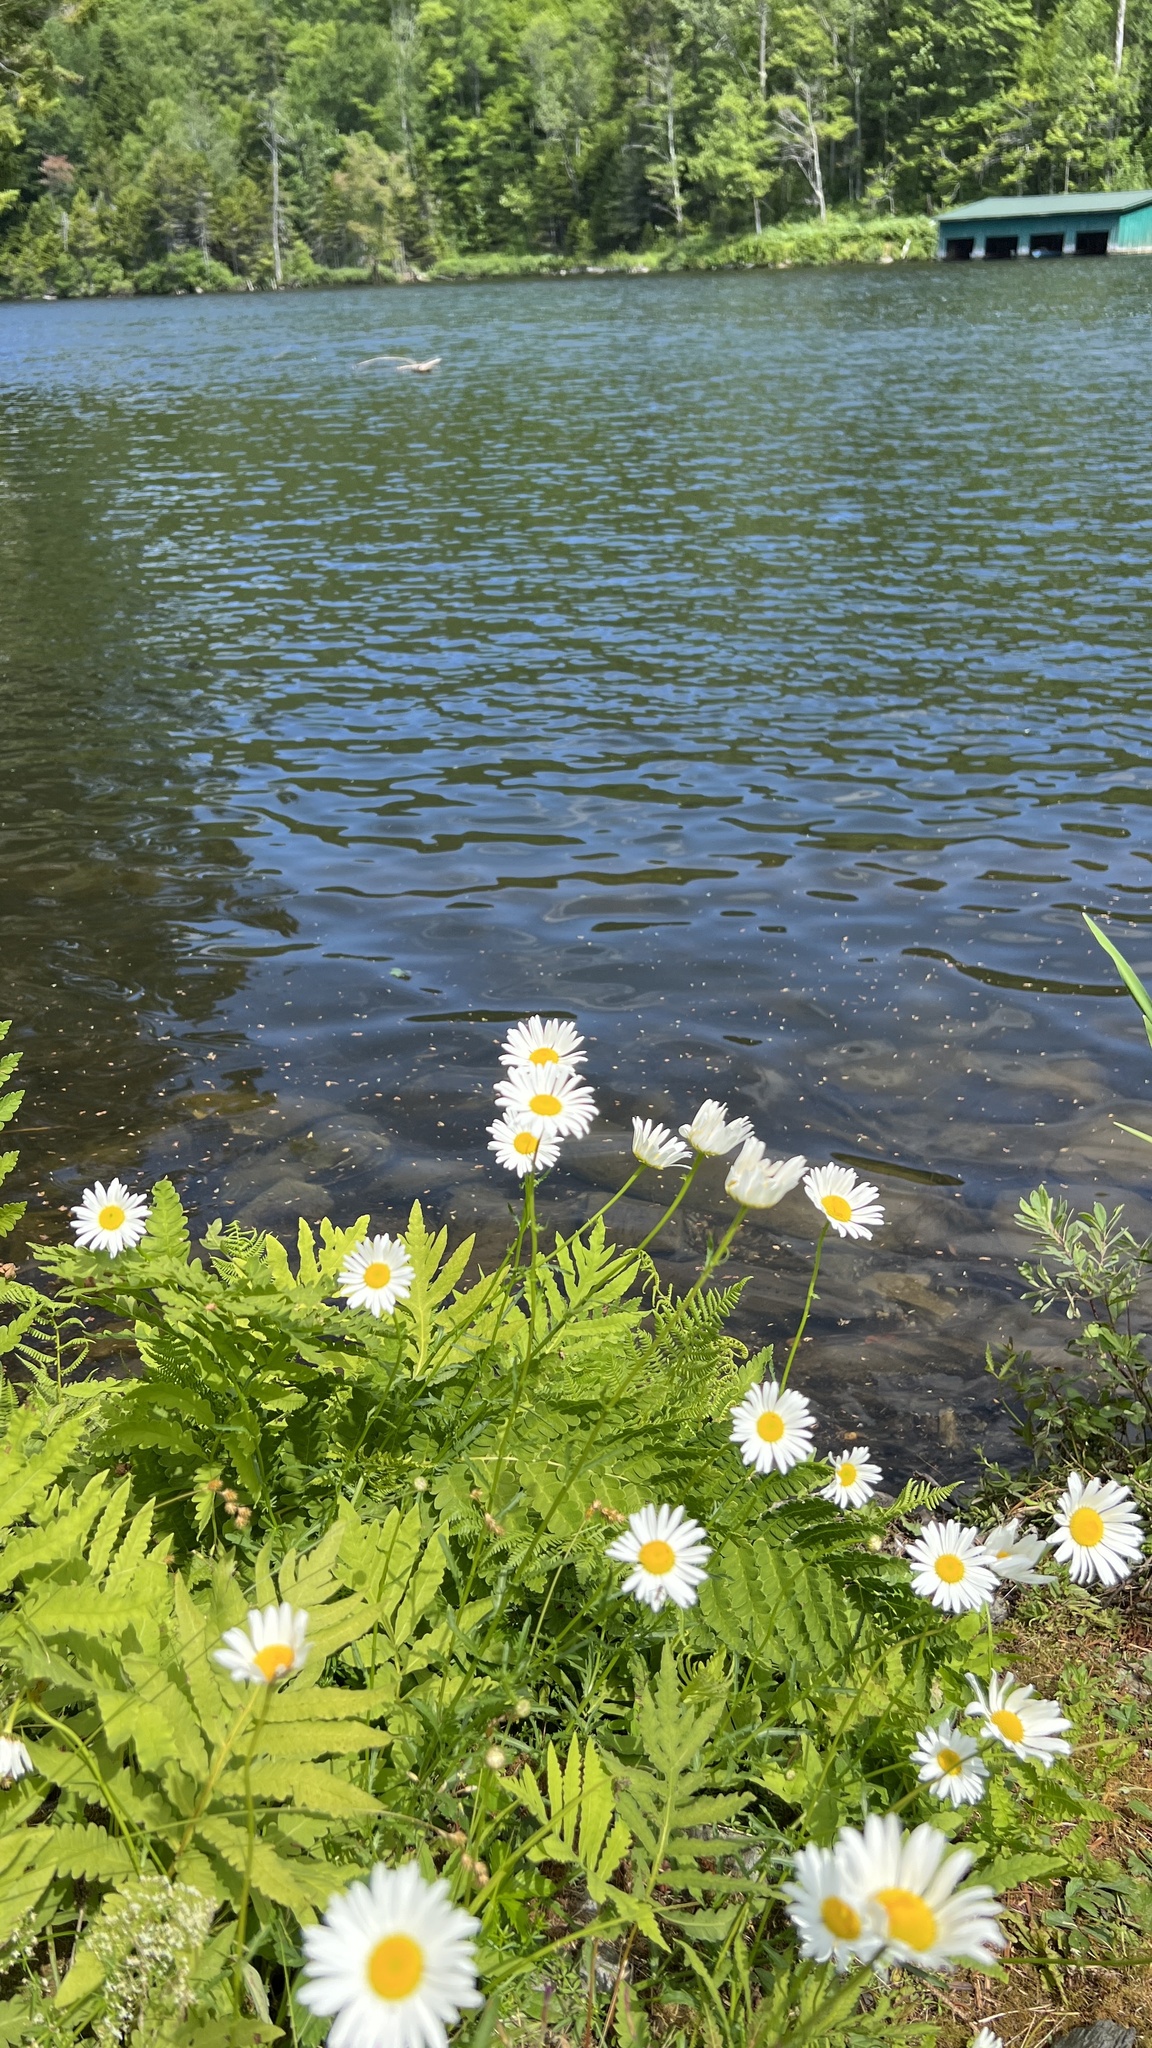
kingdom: Plantae
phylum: Tracheophyta
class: Magnoliopsida
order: Asterales
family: Asteraceae
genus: Leucanthemum
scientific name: Leucanthemum vulgare
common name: Oxeye daisy
